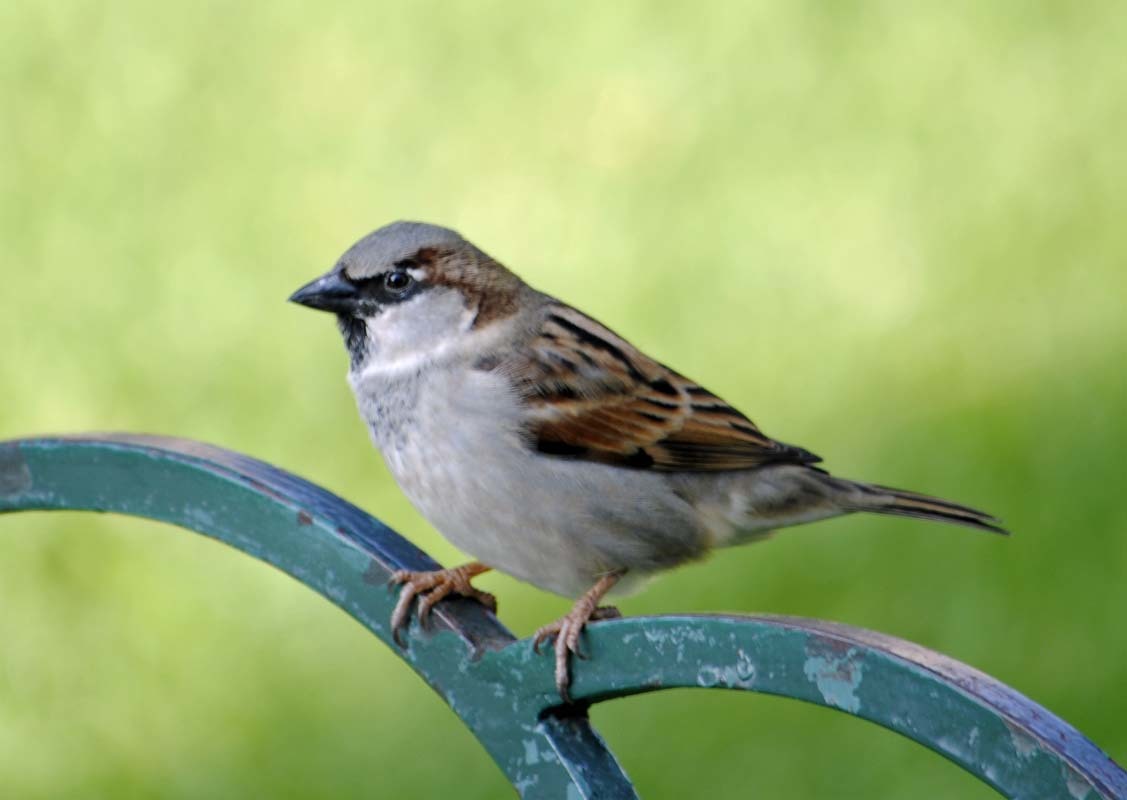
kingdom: Animalia
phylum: Chordata
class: Aves
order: Passeriformes
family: Passeridae
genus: Passer
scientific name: Passer domesticus
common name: House sparrow
